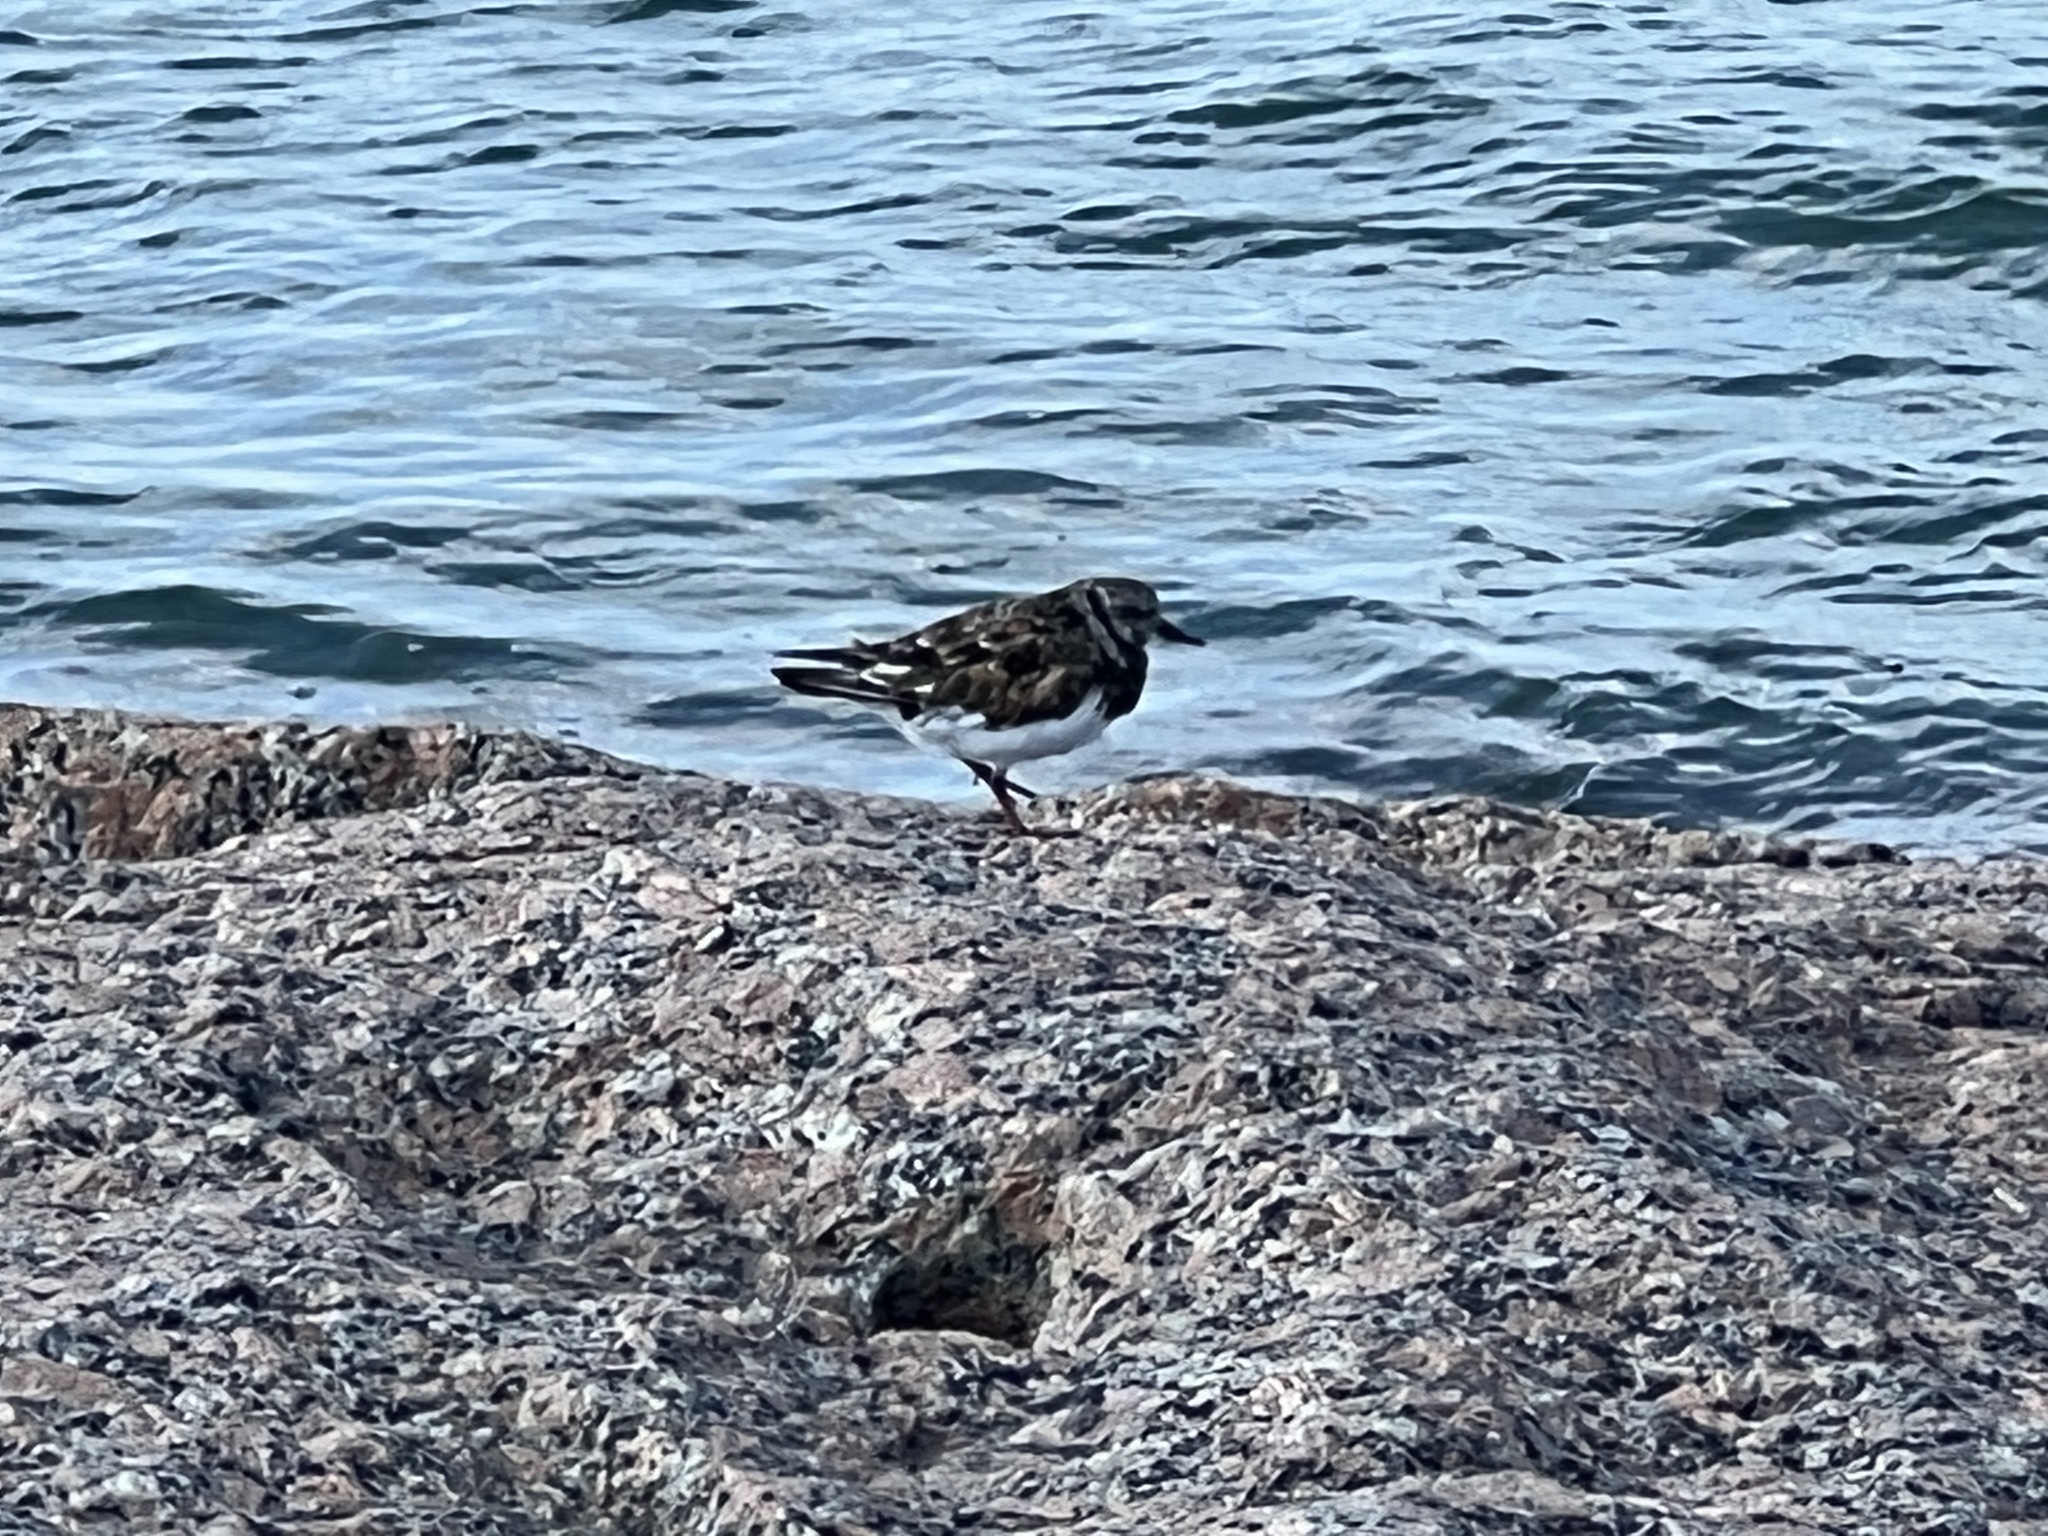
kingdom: Animalia
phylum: Chordata
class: Aves
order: Charadriiformes
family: Scolopacidae
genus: Arenaria
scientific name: Arenaria interpres
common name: Ruddy turnstone
